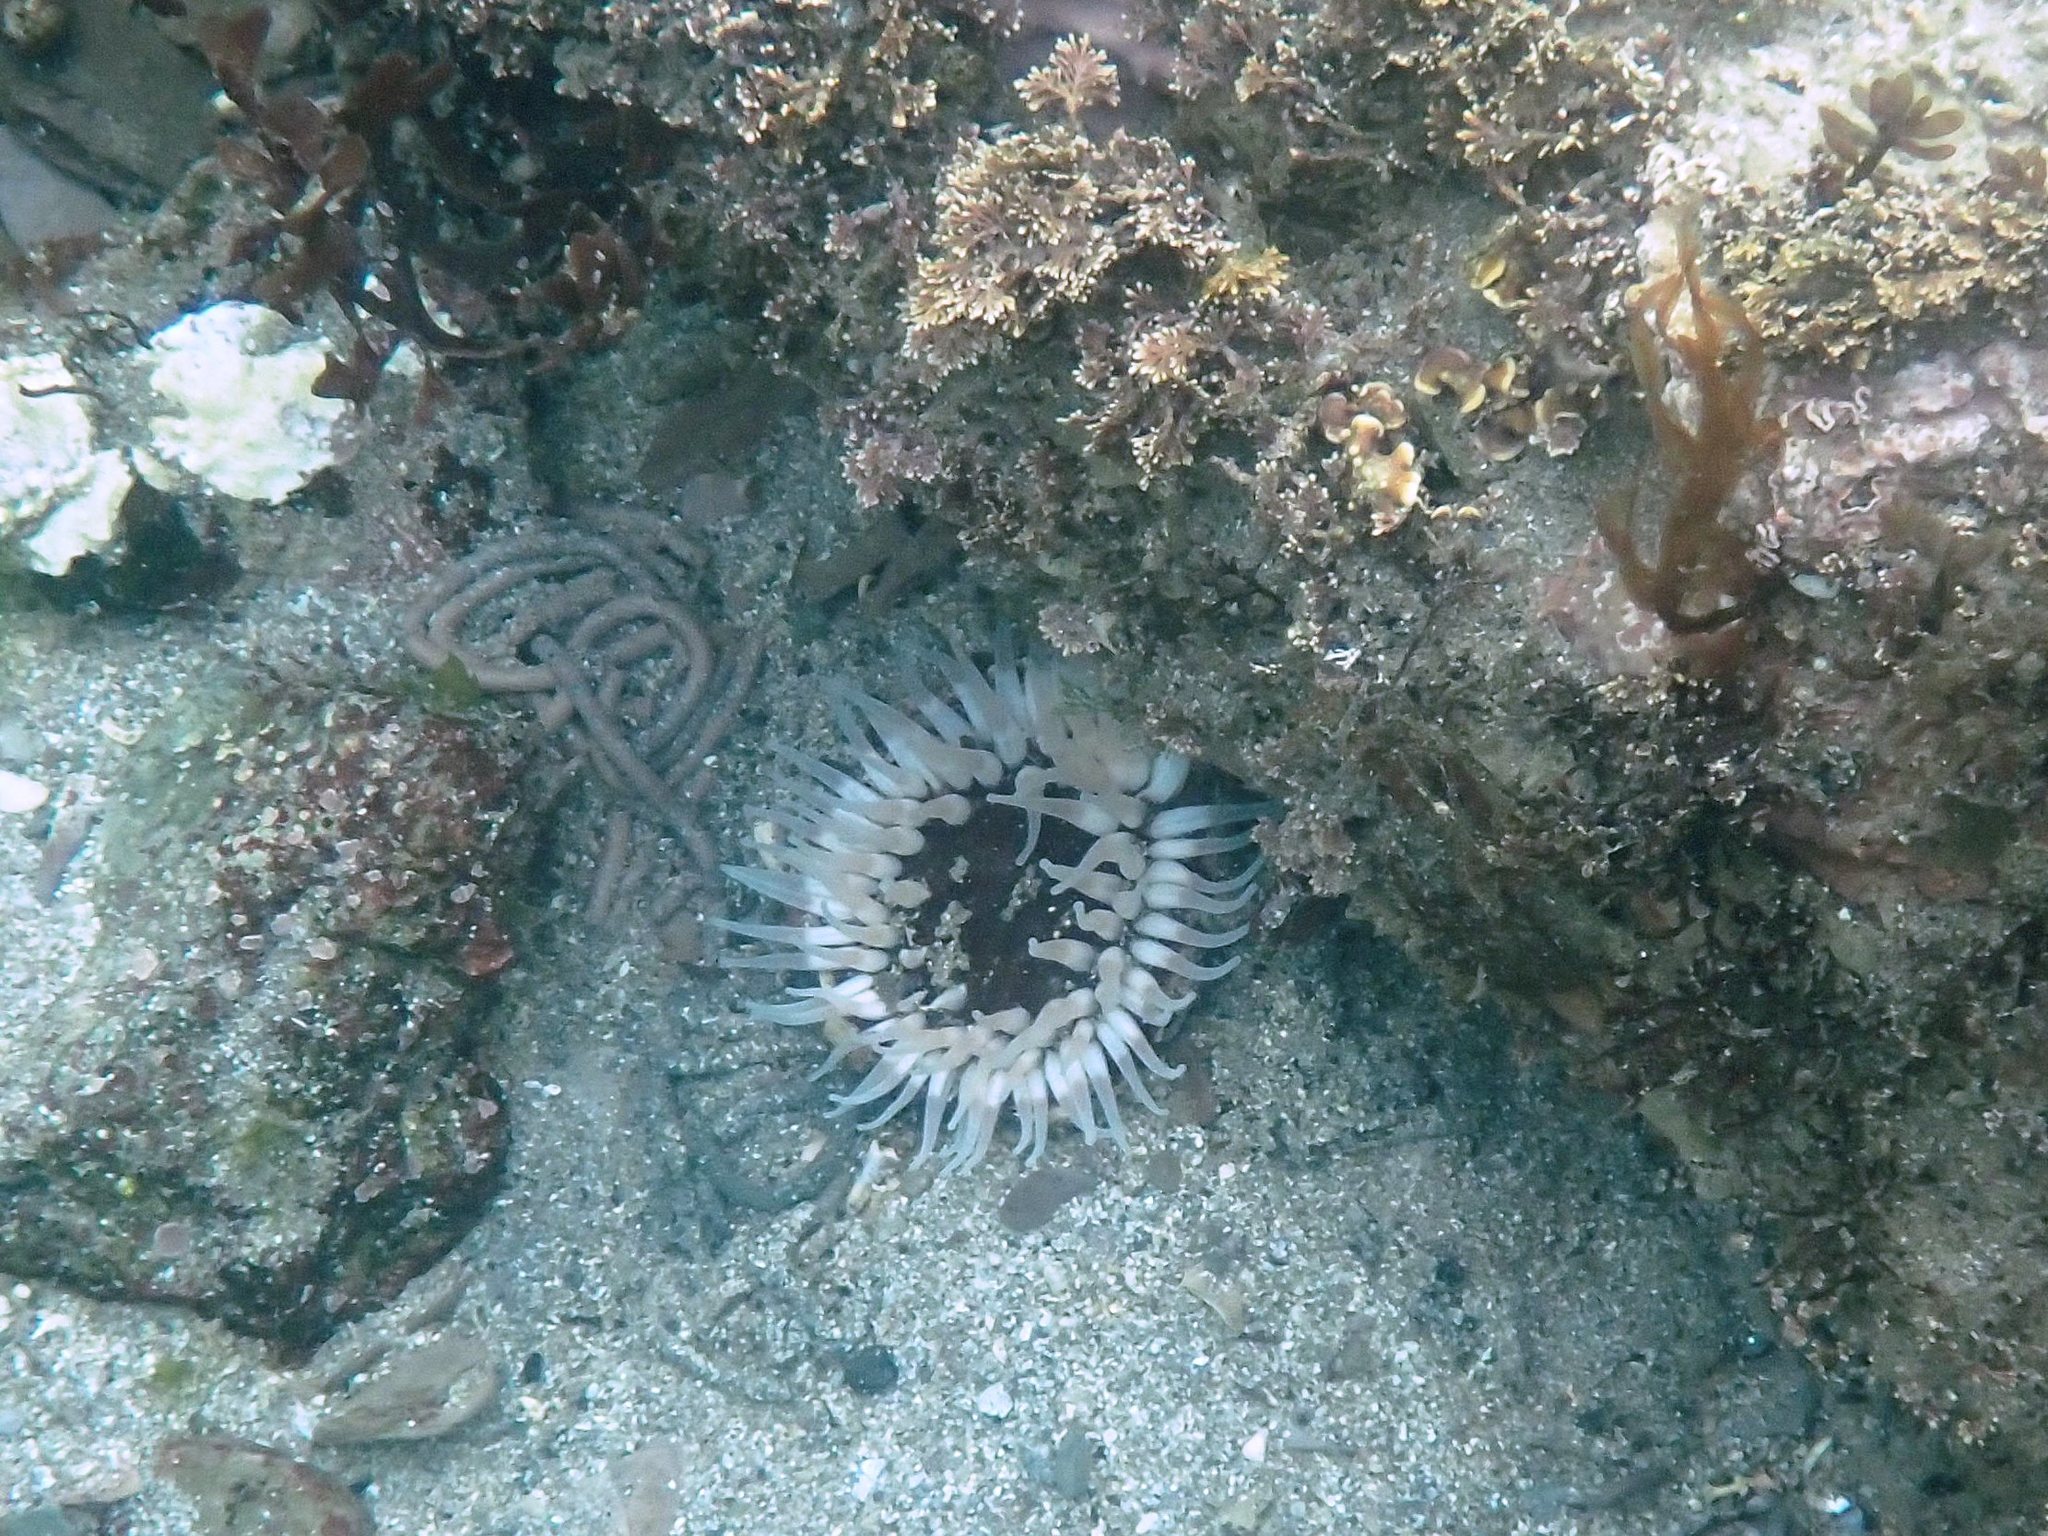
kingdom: Animalia
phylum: Cnidaria
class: Anthozoa
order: Actiniaria
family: Actiniidae
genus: Urticina
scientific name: Urticina felina
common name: Dahlia anemone
